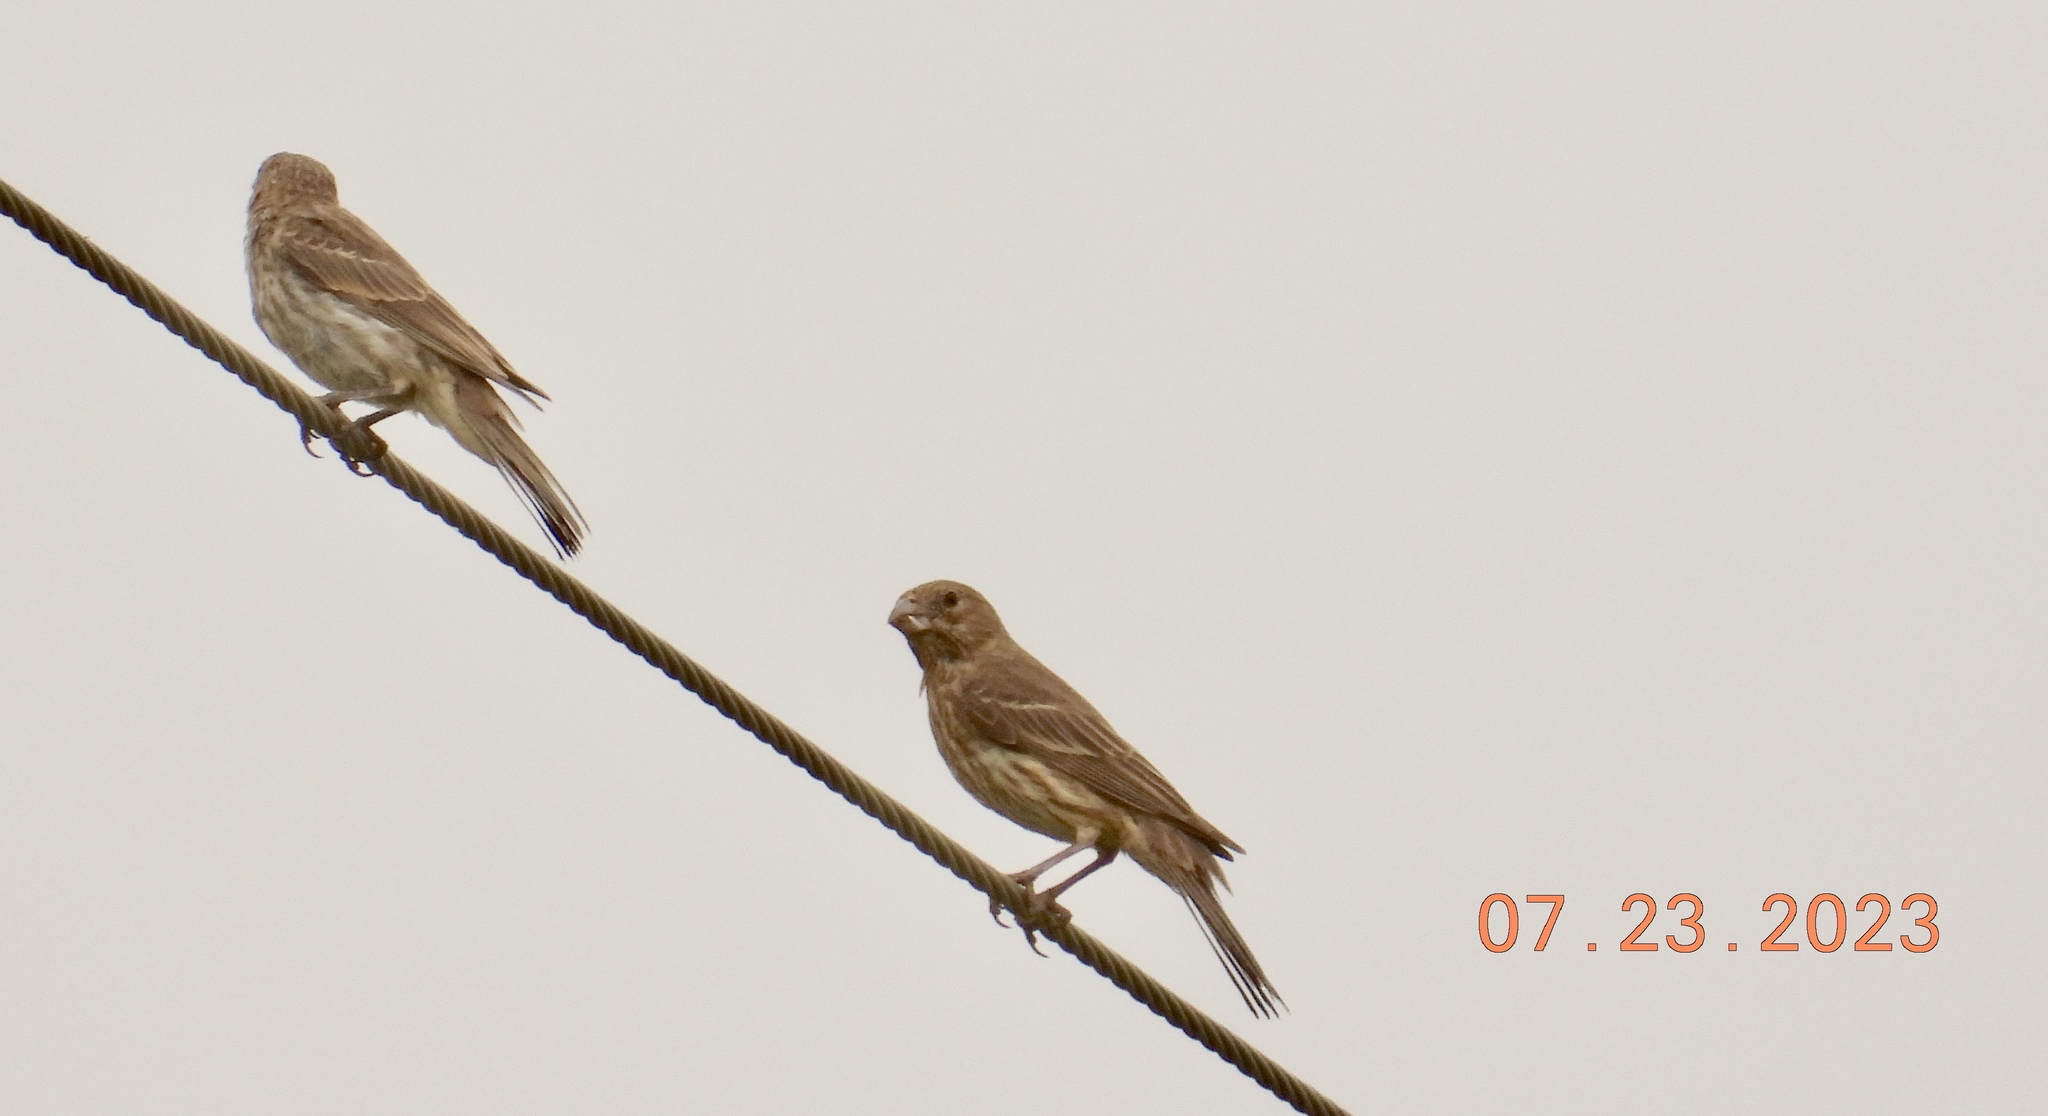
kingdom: Animalia
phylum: Chordata
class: Aves
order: Passeriformes
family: Fringillidae
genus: Haemorhous
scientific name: Haemorhous mexicanus
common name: House finch
